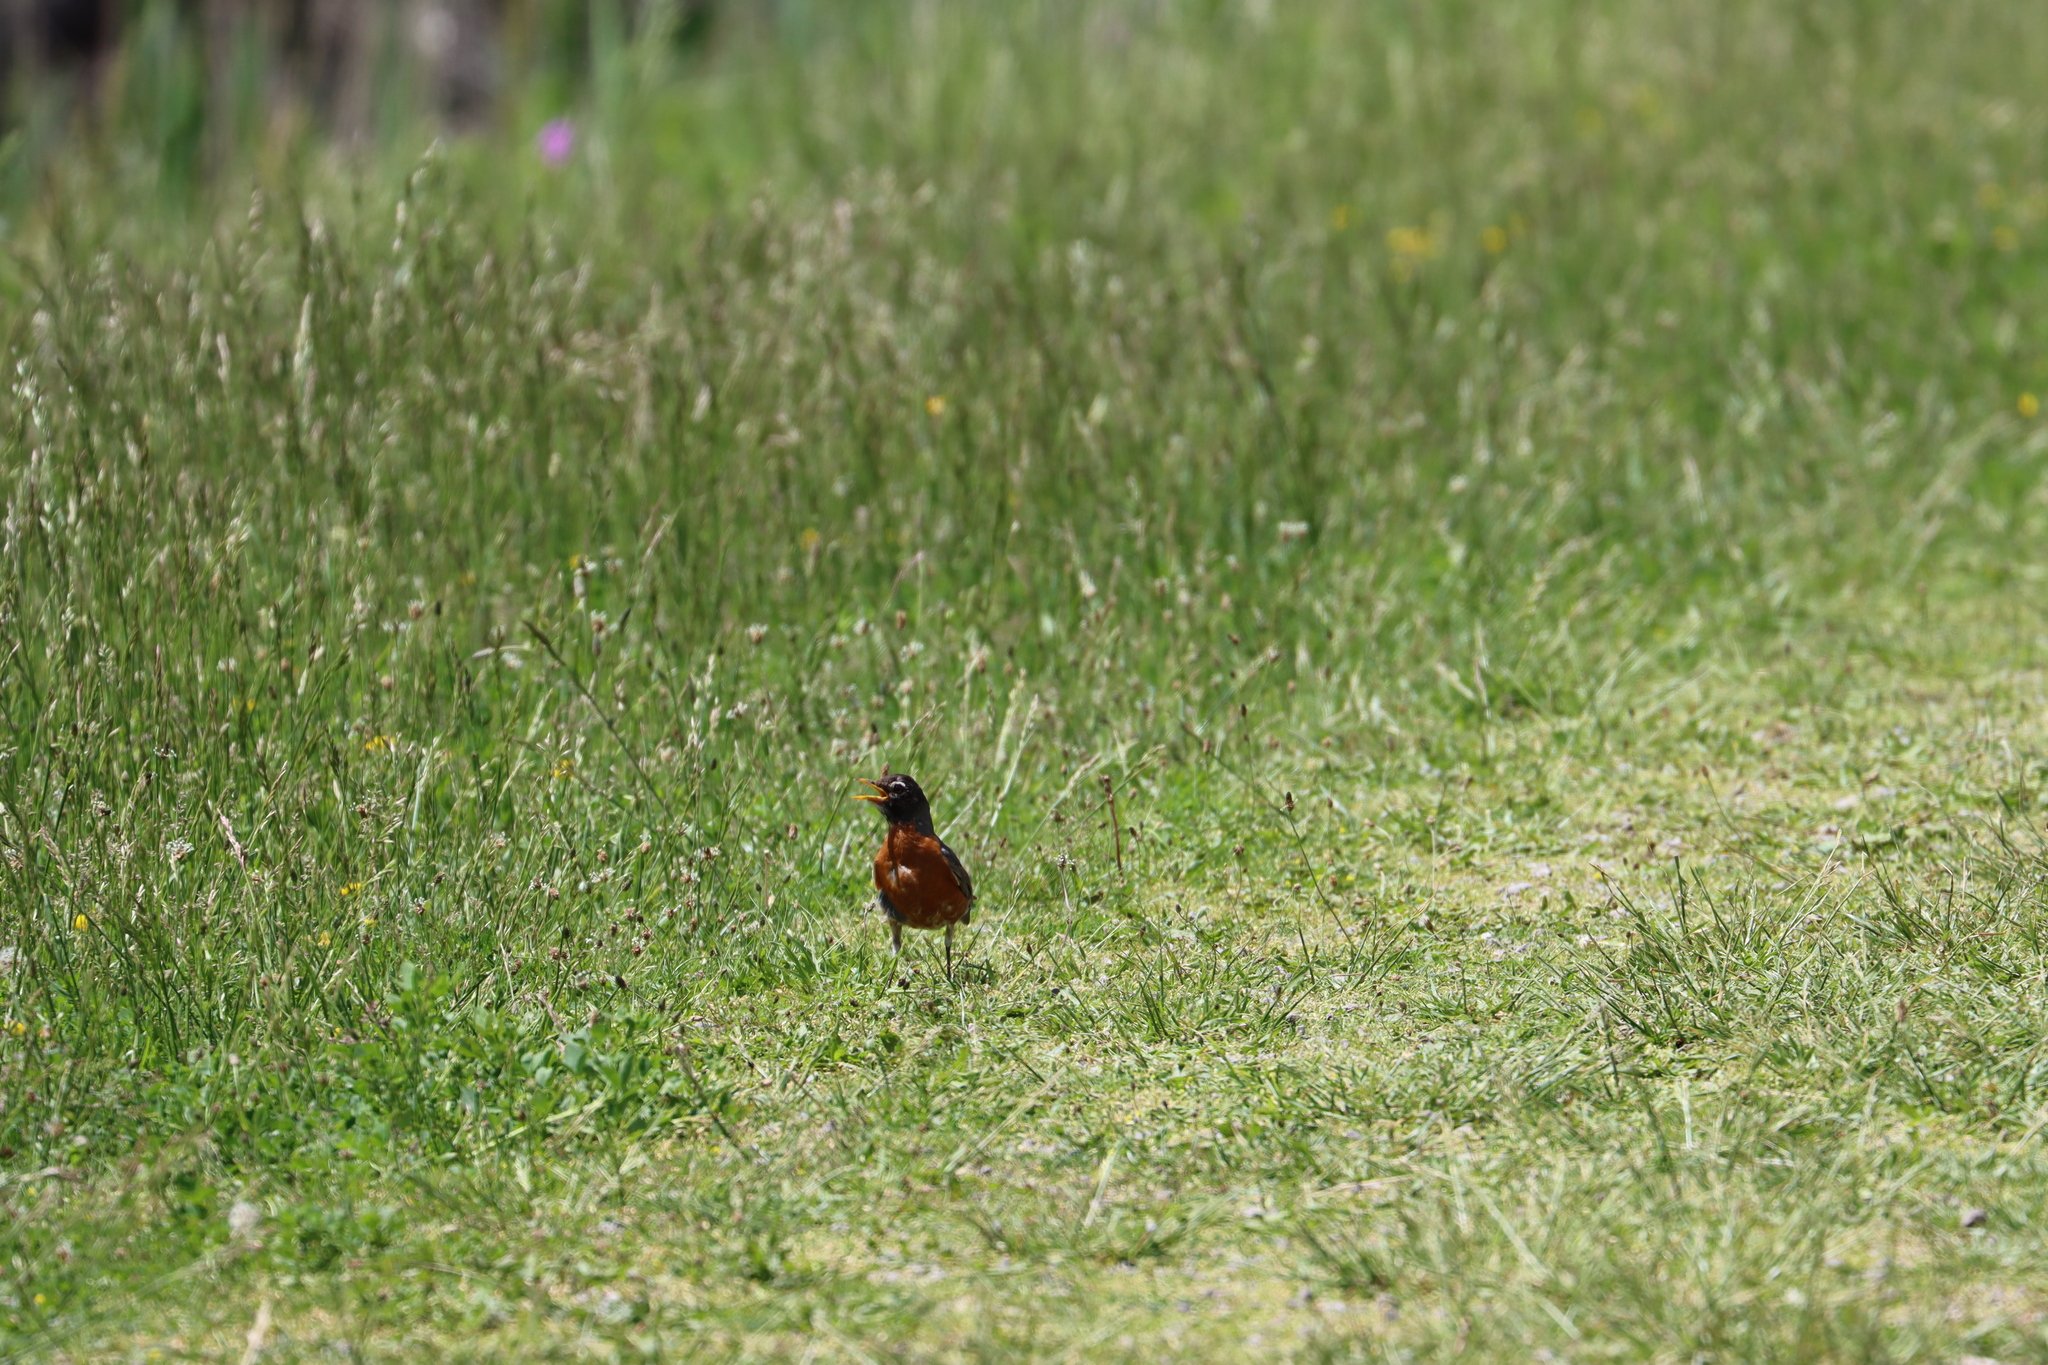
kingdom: Animalia
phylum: Chordata
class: Aves
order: Passeriformes
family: Turdidae
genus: Turdus
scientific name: Turdus migratorius
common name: American robin
